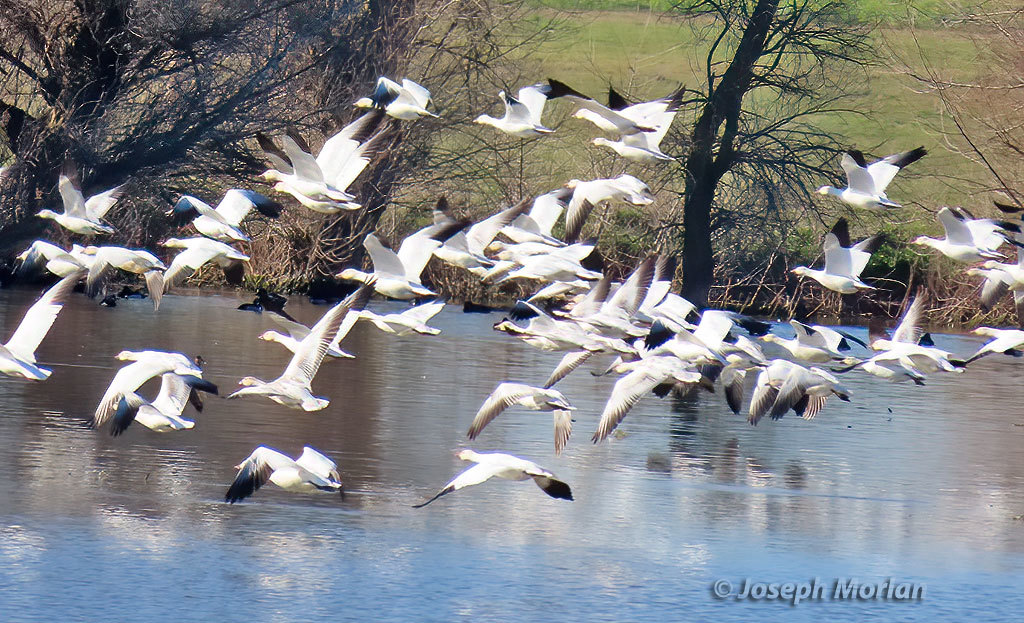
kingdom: Animalia
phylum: Chordata
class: Aves
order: Anseriformes
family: Anatidae
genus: Anser
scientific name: Anser caerulescens
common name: Snow goose
